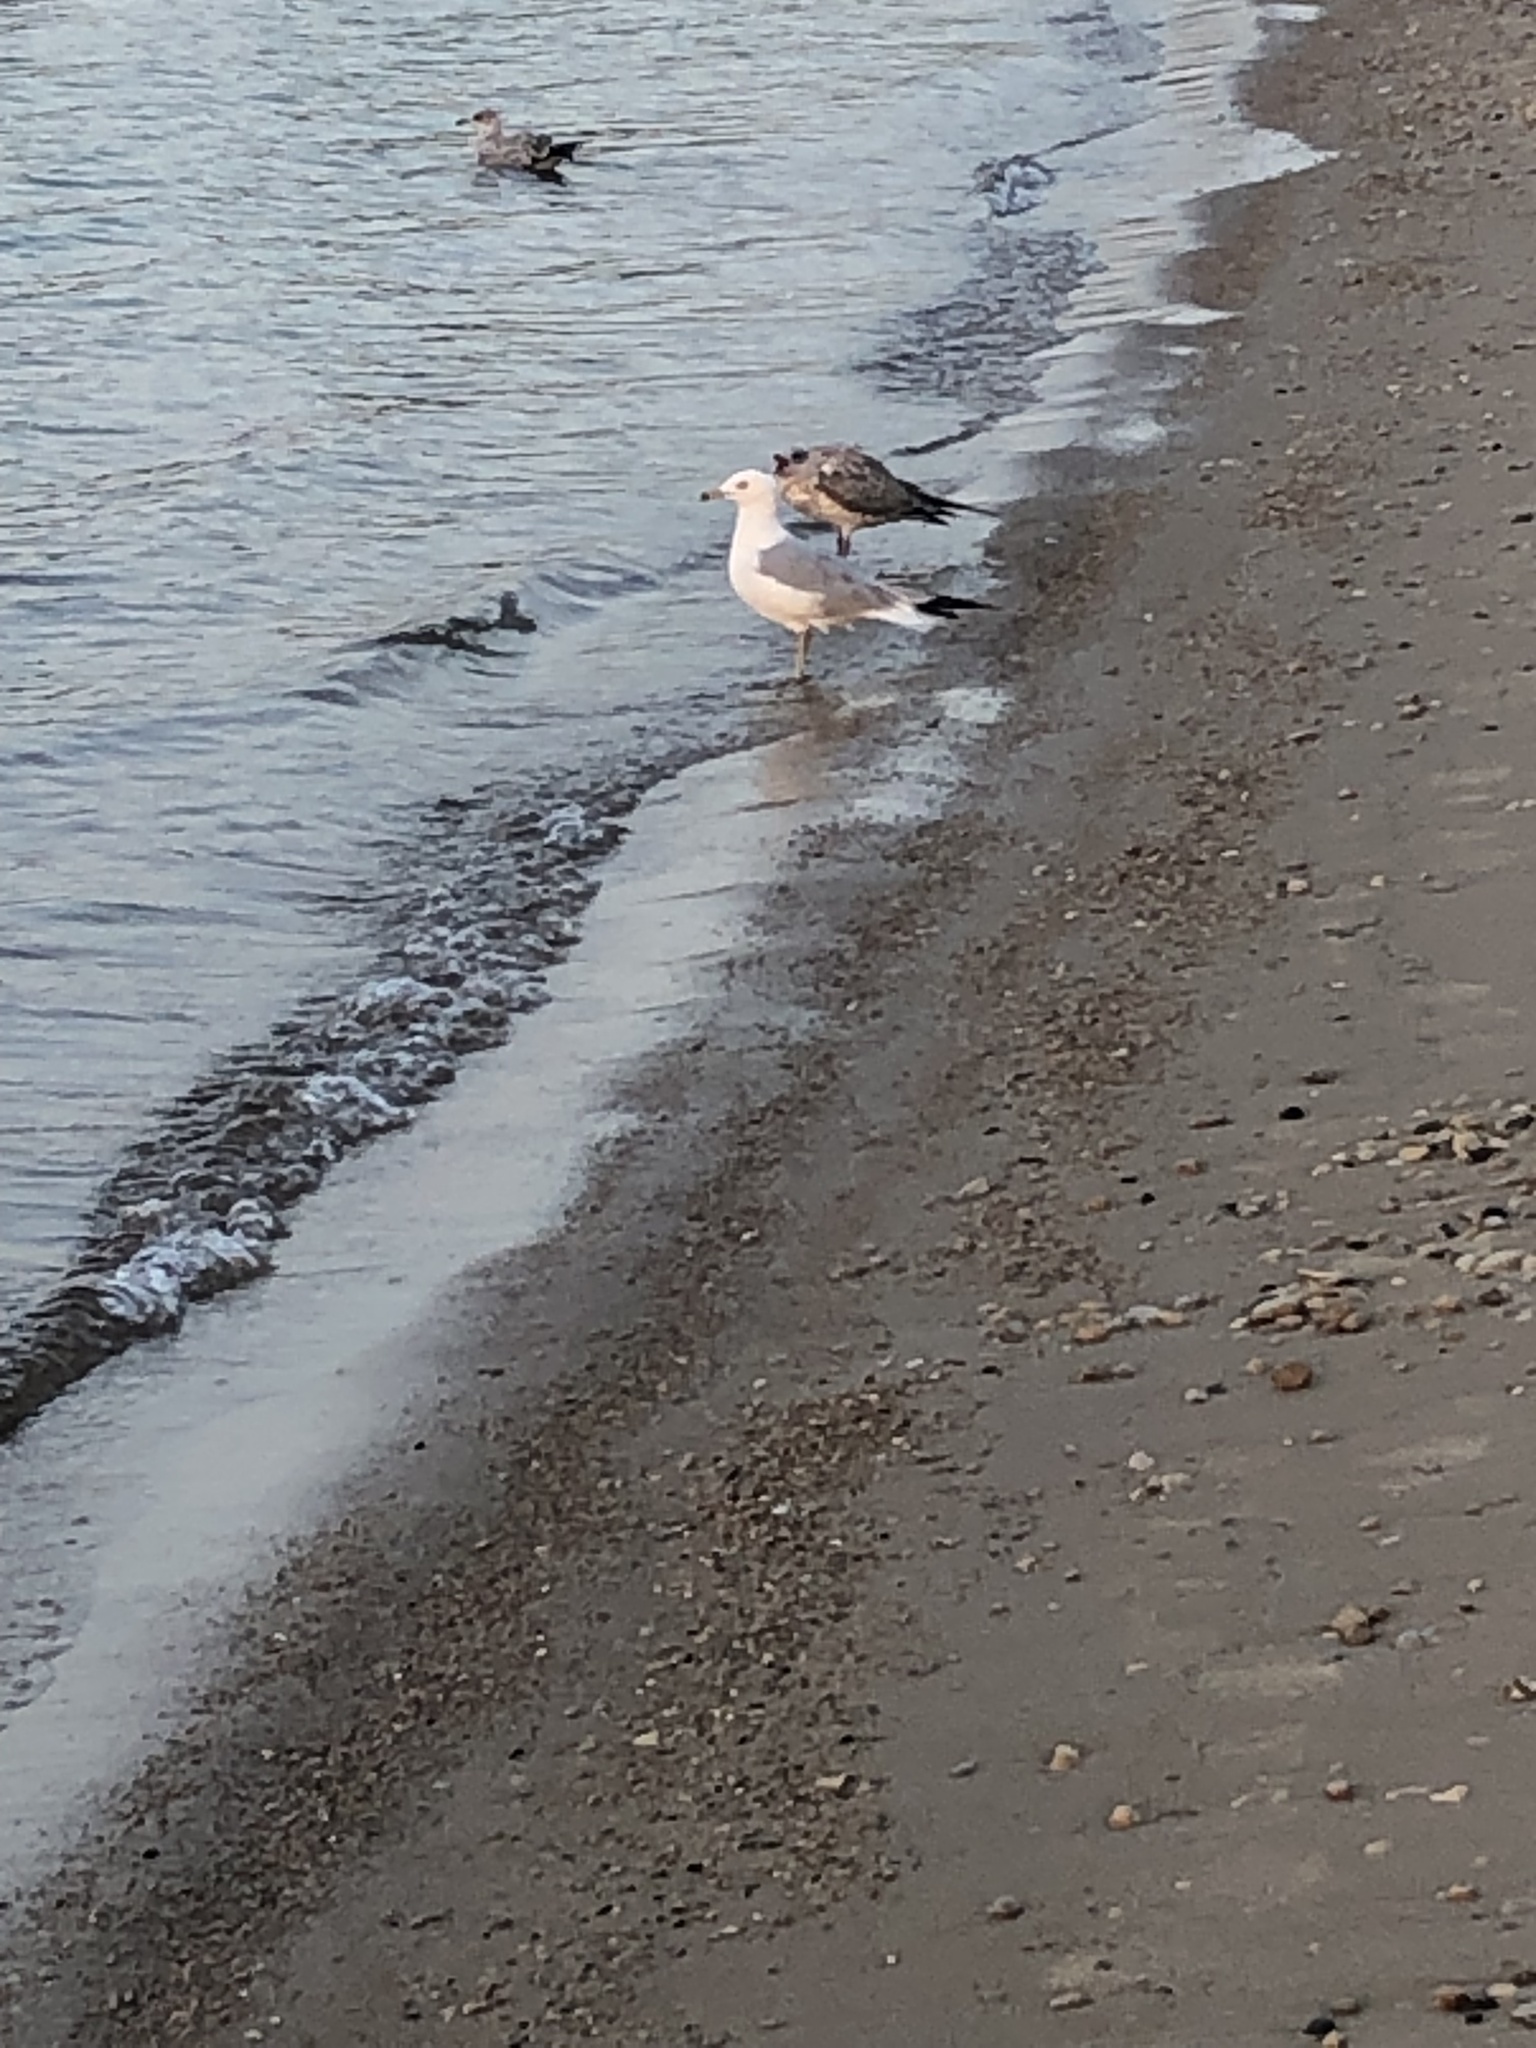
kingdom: Animalia
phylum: Chordata
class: Aves
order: Charadriiformes
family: Laridae
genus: Larus
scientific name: Larus delawarensis
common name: Ring-billed gull
